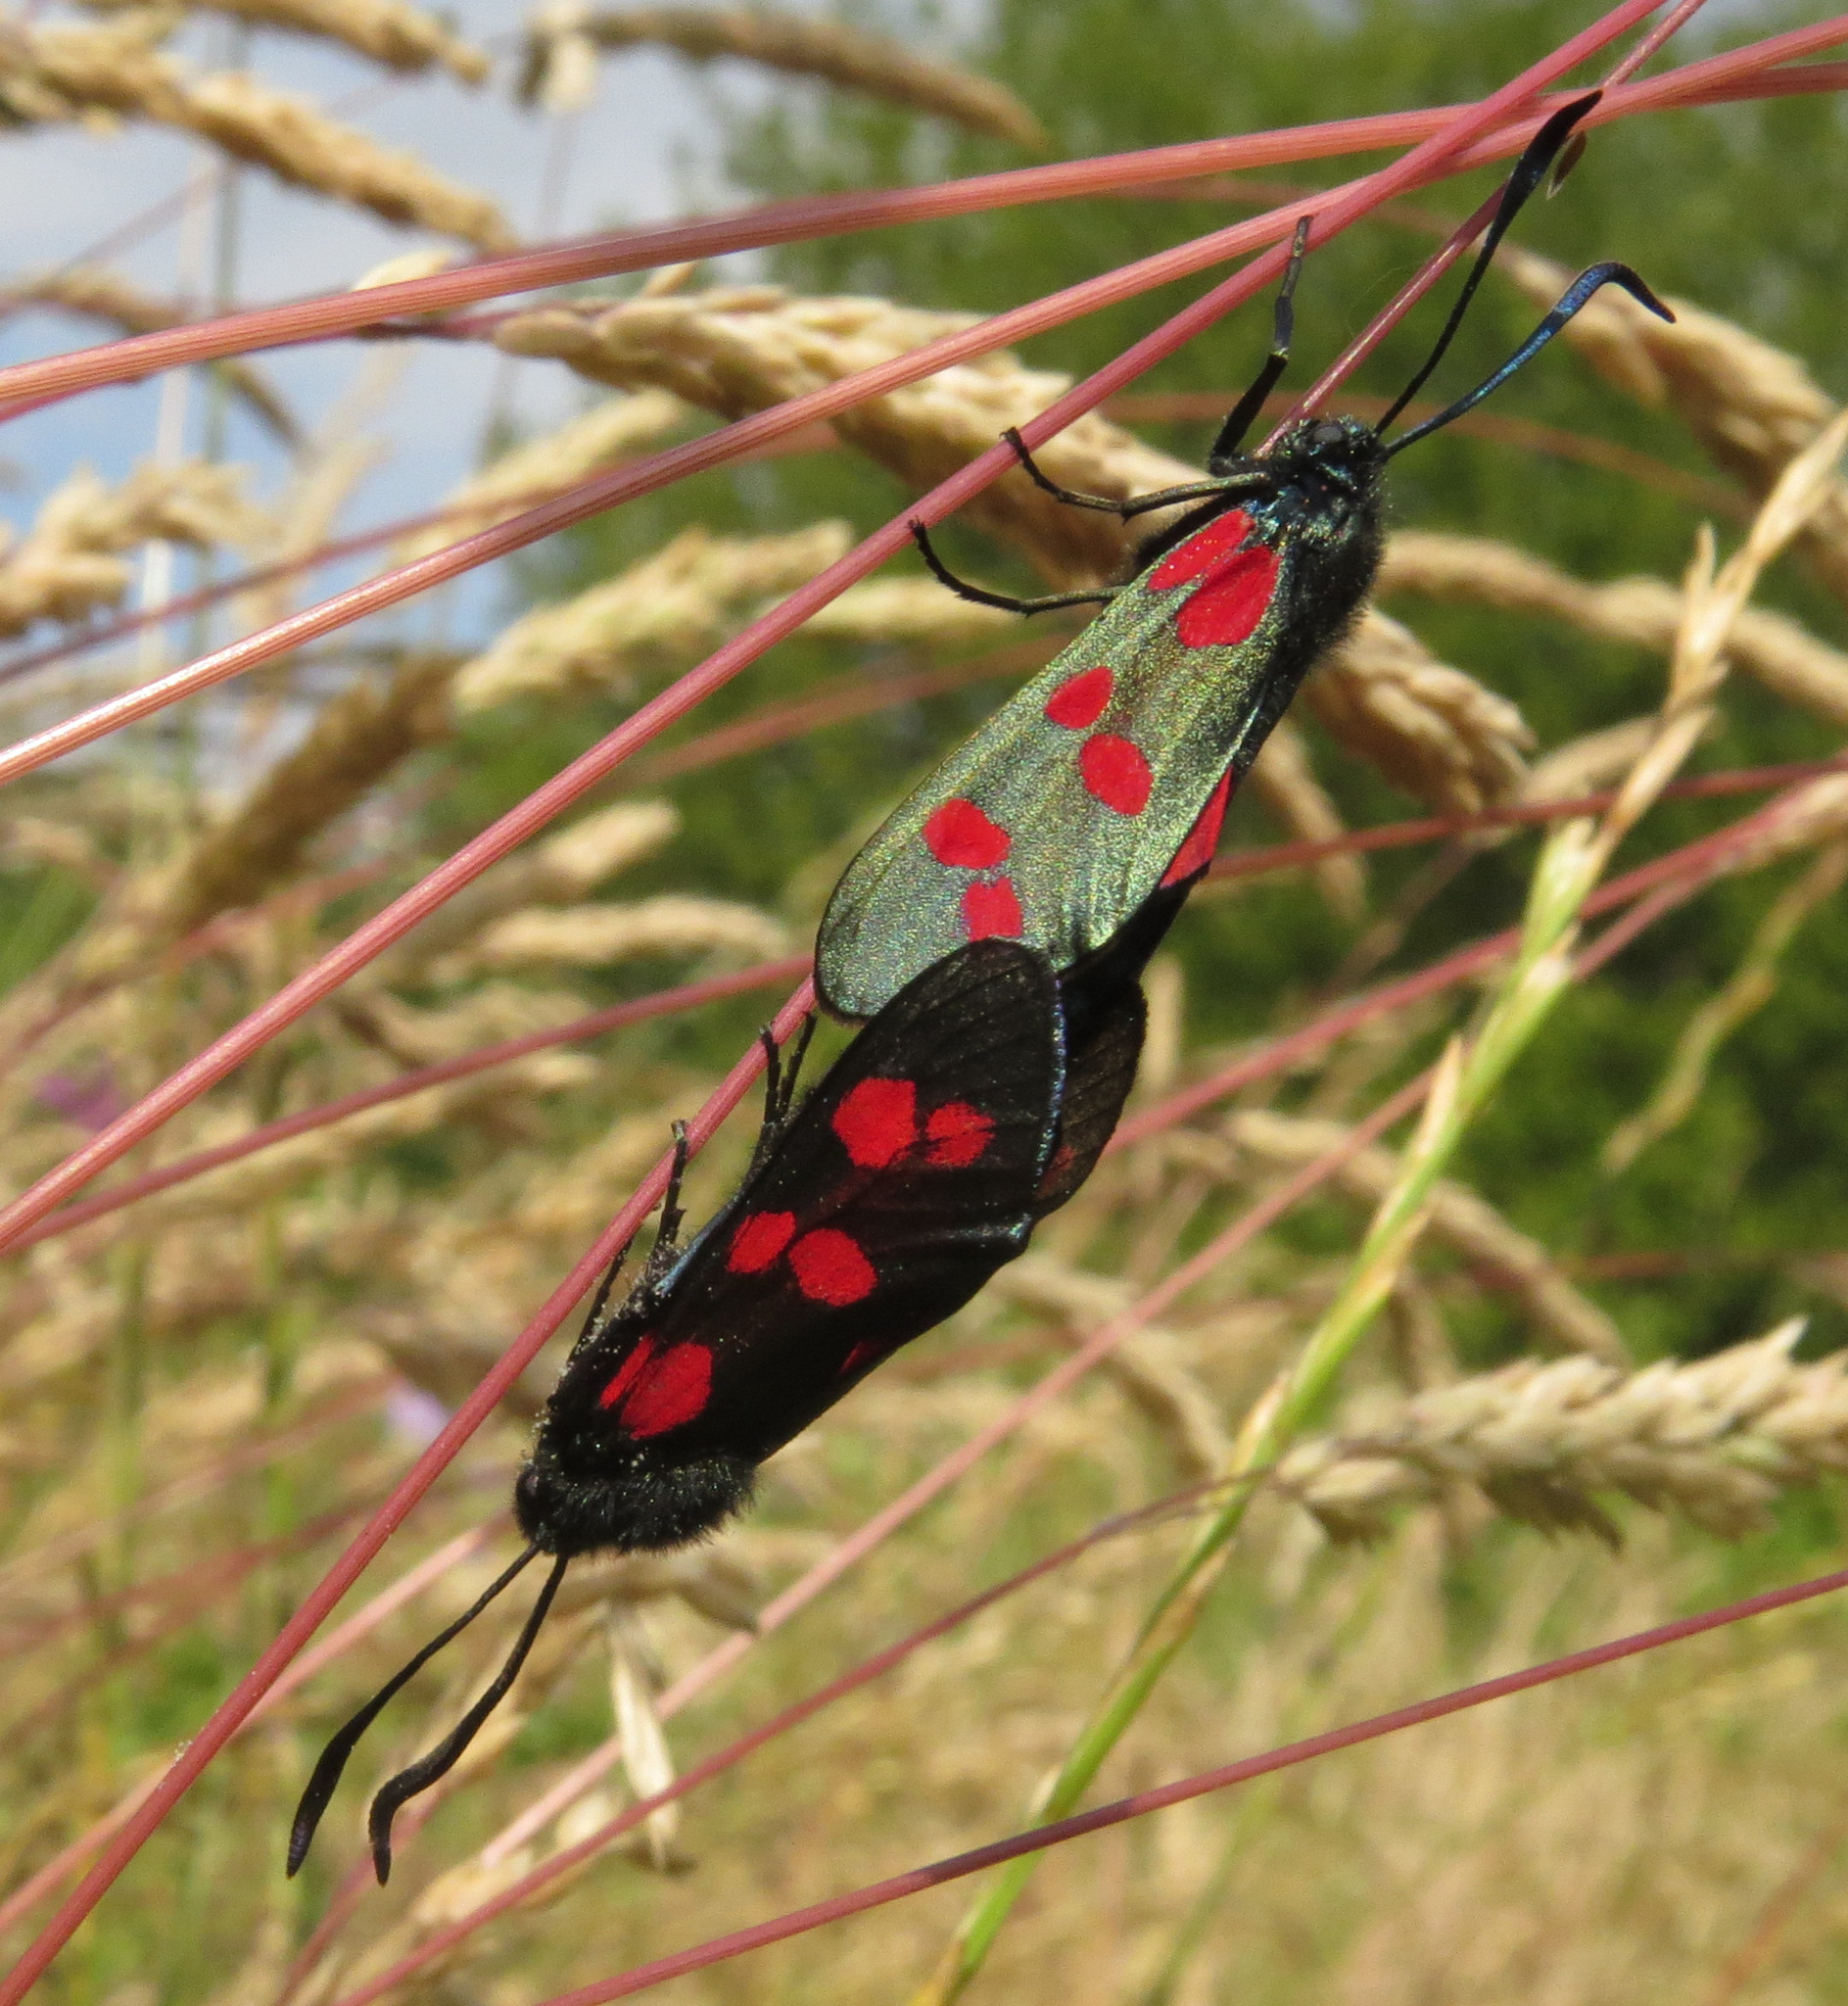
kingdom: Animalia
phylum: Arthropoda
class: Insecta
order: Lepidoptera
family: Zygaenidae
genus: Zygaena
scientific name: Zygaena filipendulae
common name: Six-spot burnet
